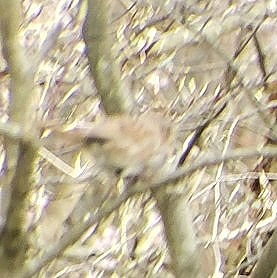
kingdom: Animalia
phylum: Chordata
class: Aves
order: Passeriformes
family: Passerellidae
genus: Melospiza
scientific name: Melospiza melodia
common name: Song sparrow
